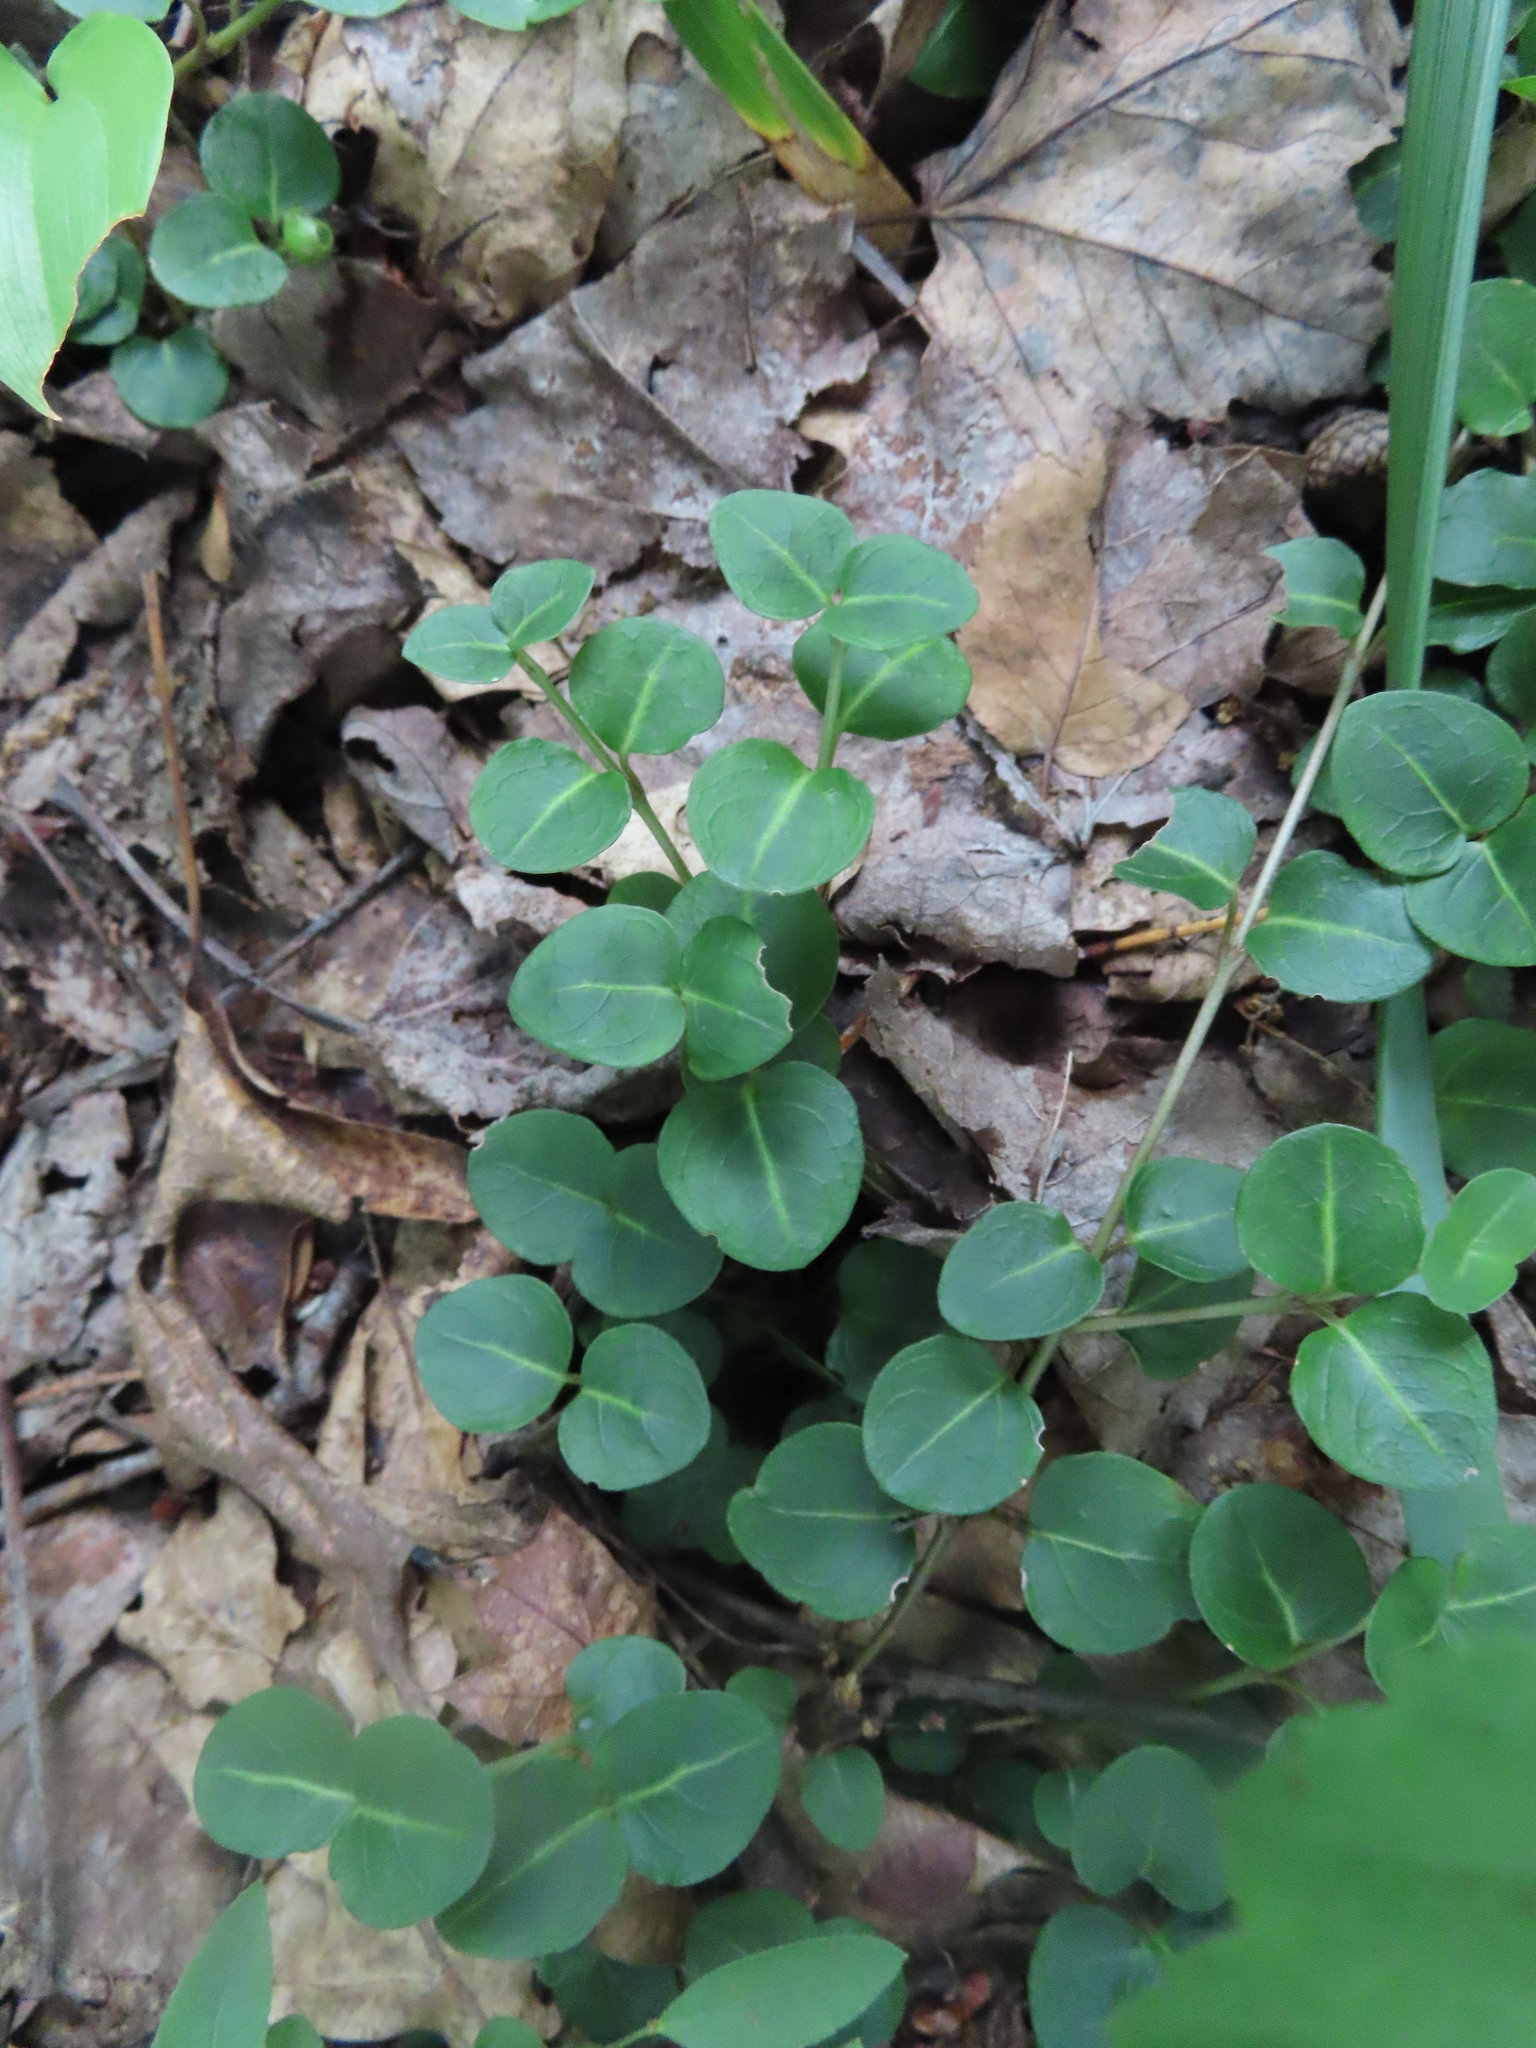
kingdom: Plantae
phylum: Tracheophyta
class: Magnoliopsida
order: Gentianales
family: Rubiaceae
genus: Mitchella
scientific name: Mitchella repens
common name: Partridge-berry
